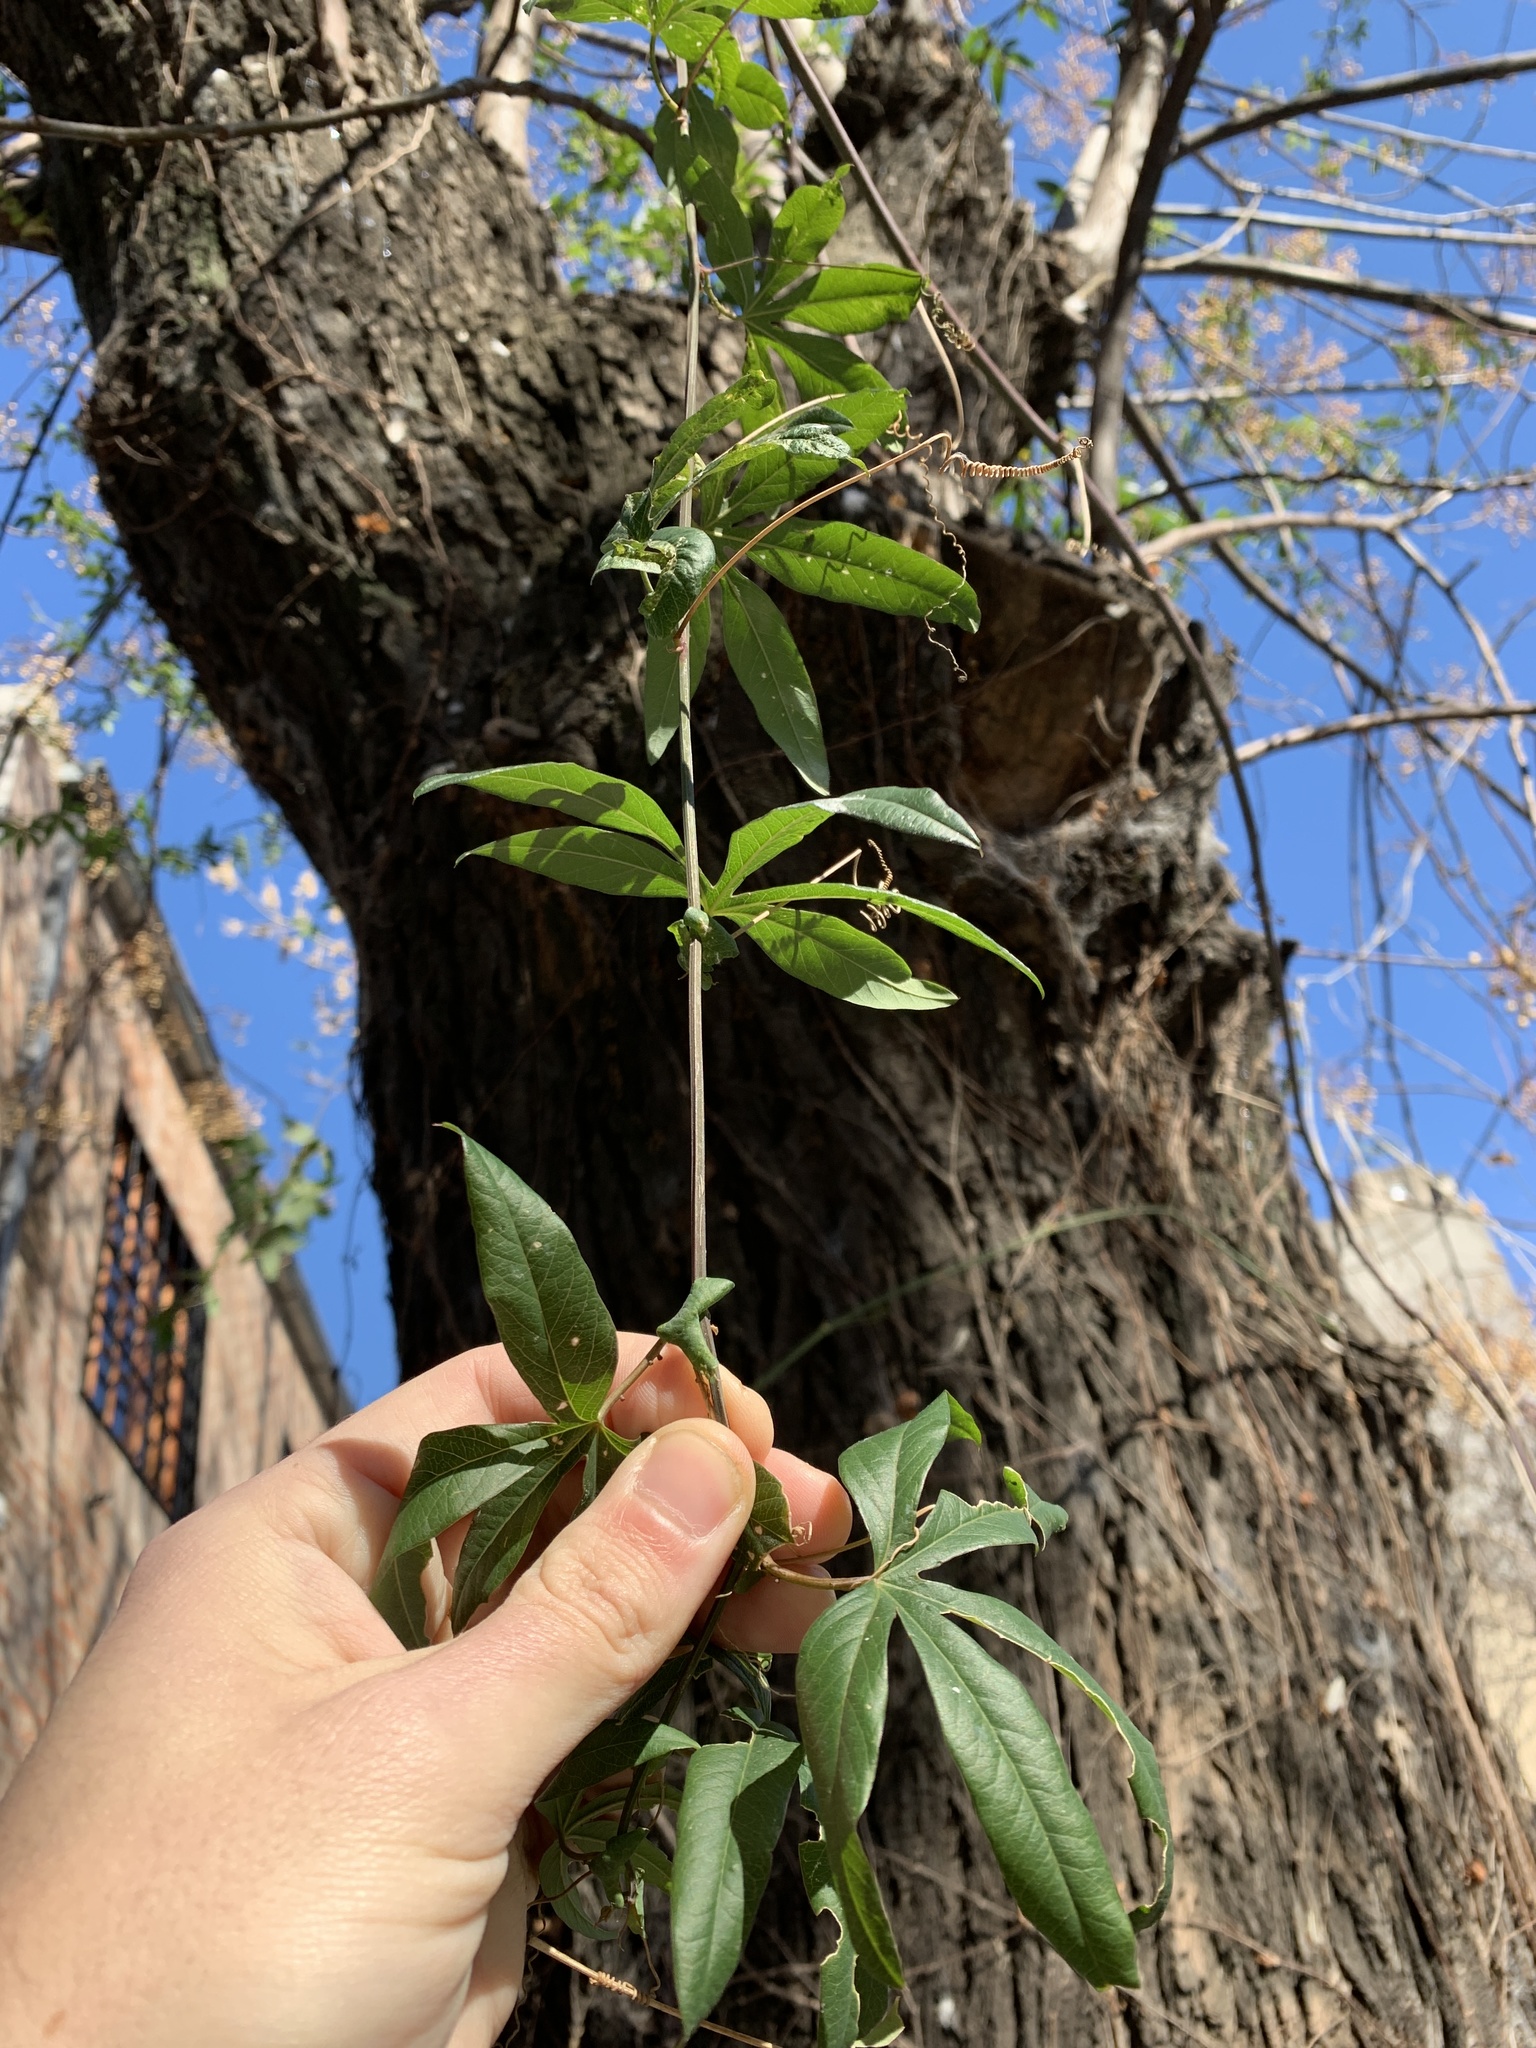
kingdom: Plantae
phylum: Tracheophyta
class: Magnoliopsida
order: Malpighiales
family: Passifloraceae
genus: Passiflora
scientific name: Passiflora caerulea
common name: Blue passionflower
